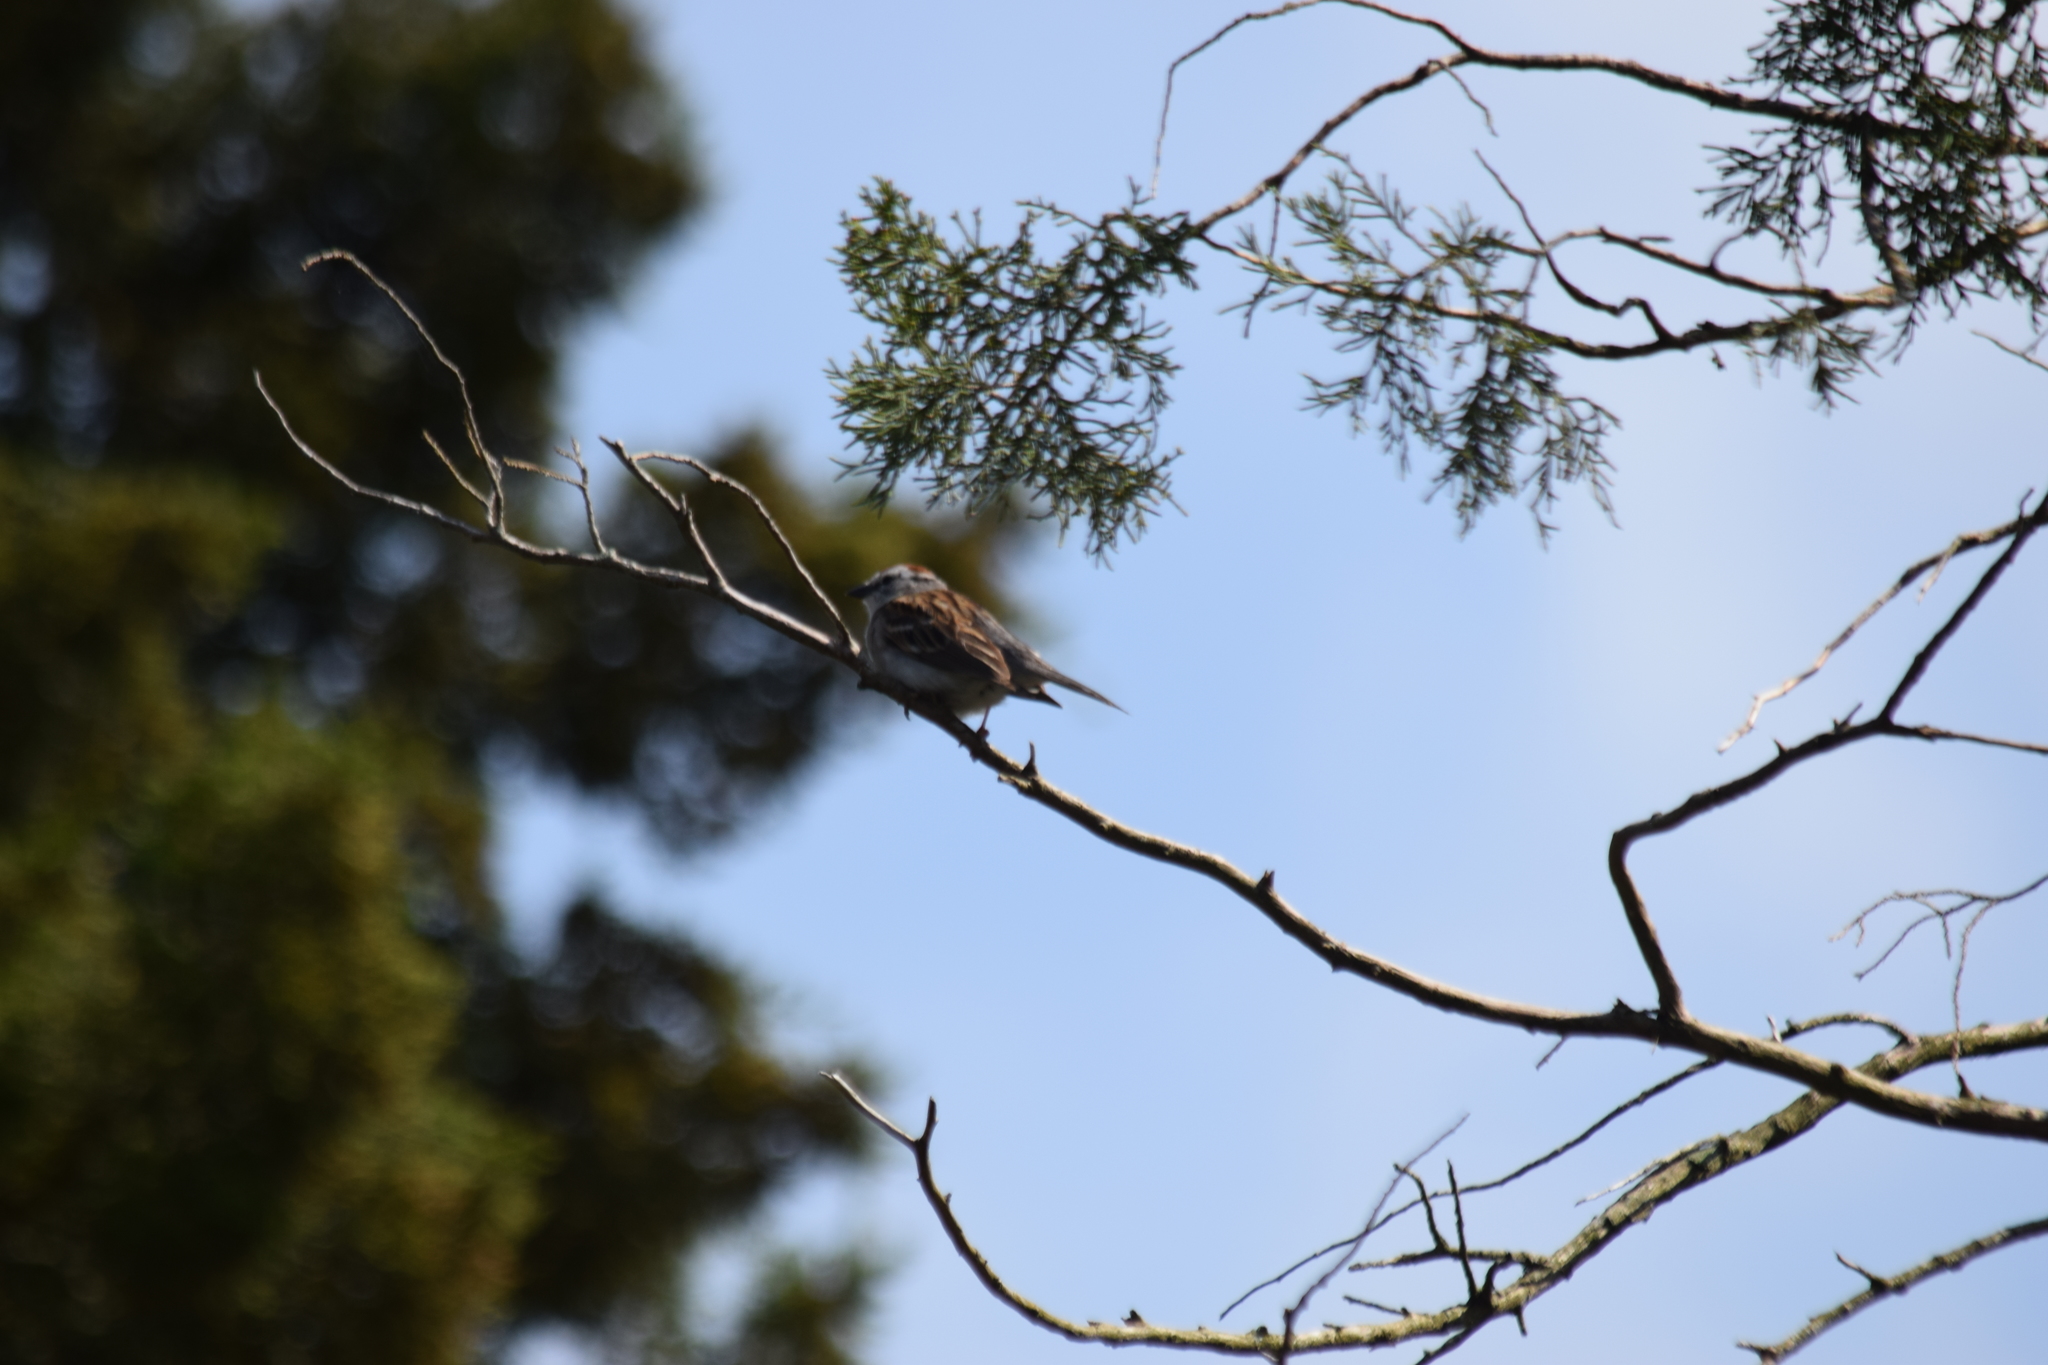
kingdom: Animalia
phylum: Chordata
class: Aves
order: Passeriformes
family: Passerellidae
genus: Spizella
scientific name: Spizella passerina
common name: Chipping sparrow
